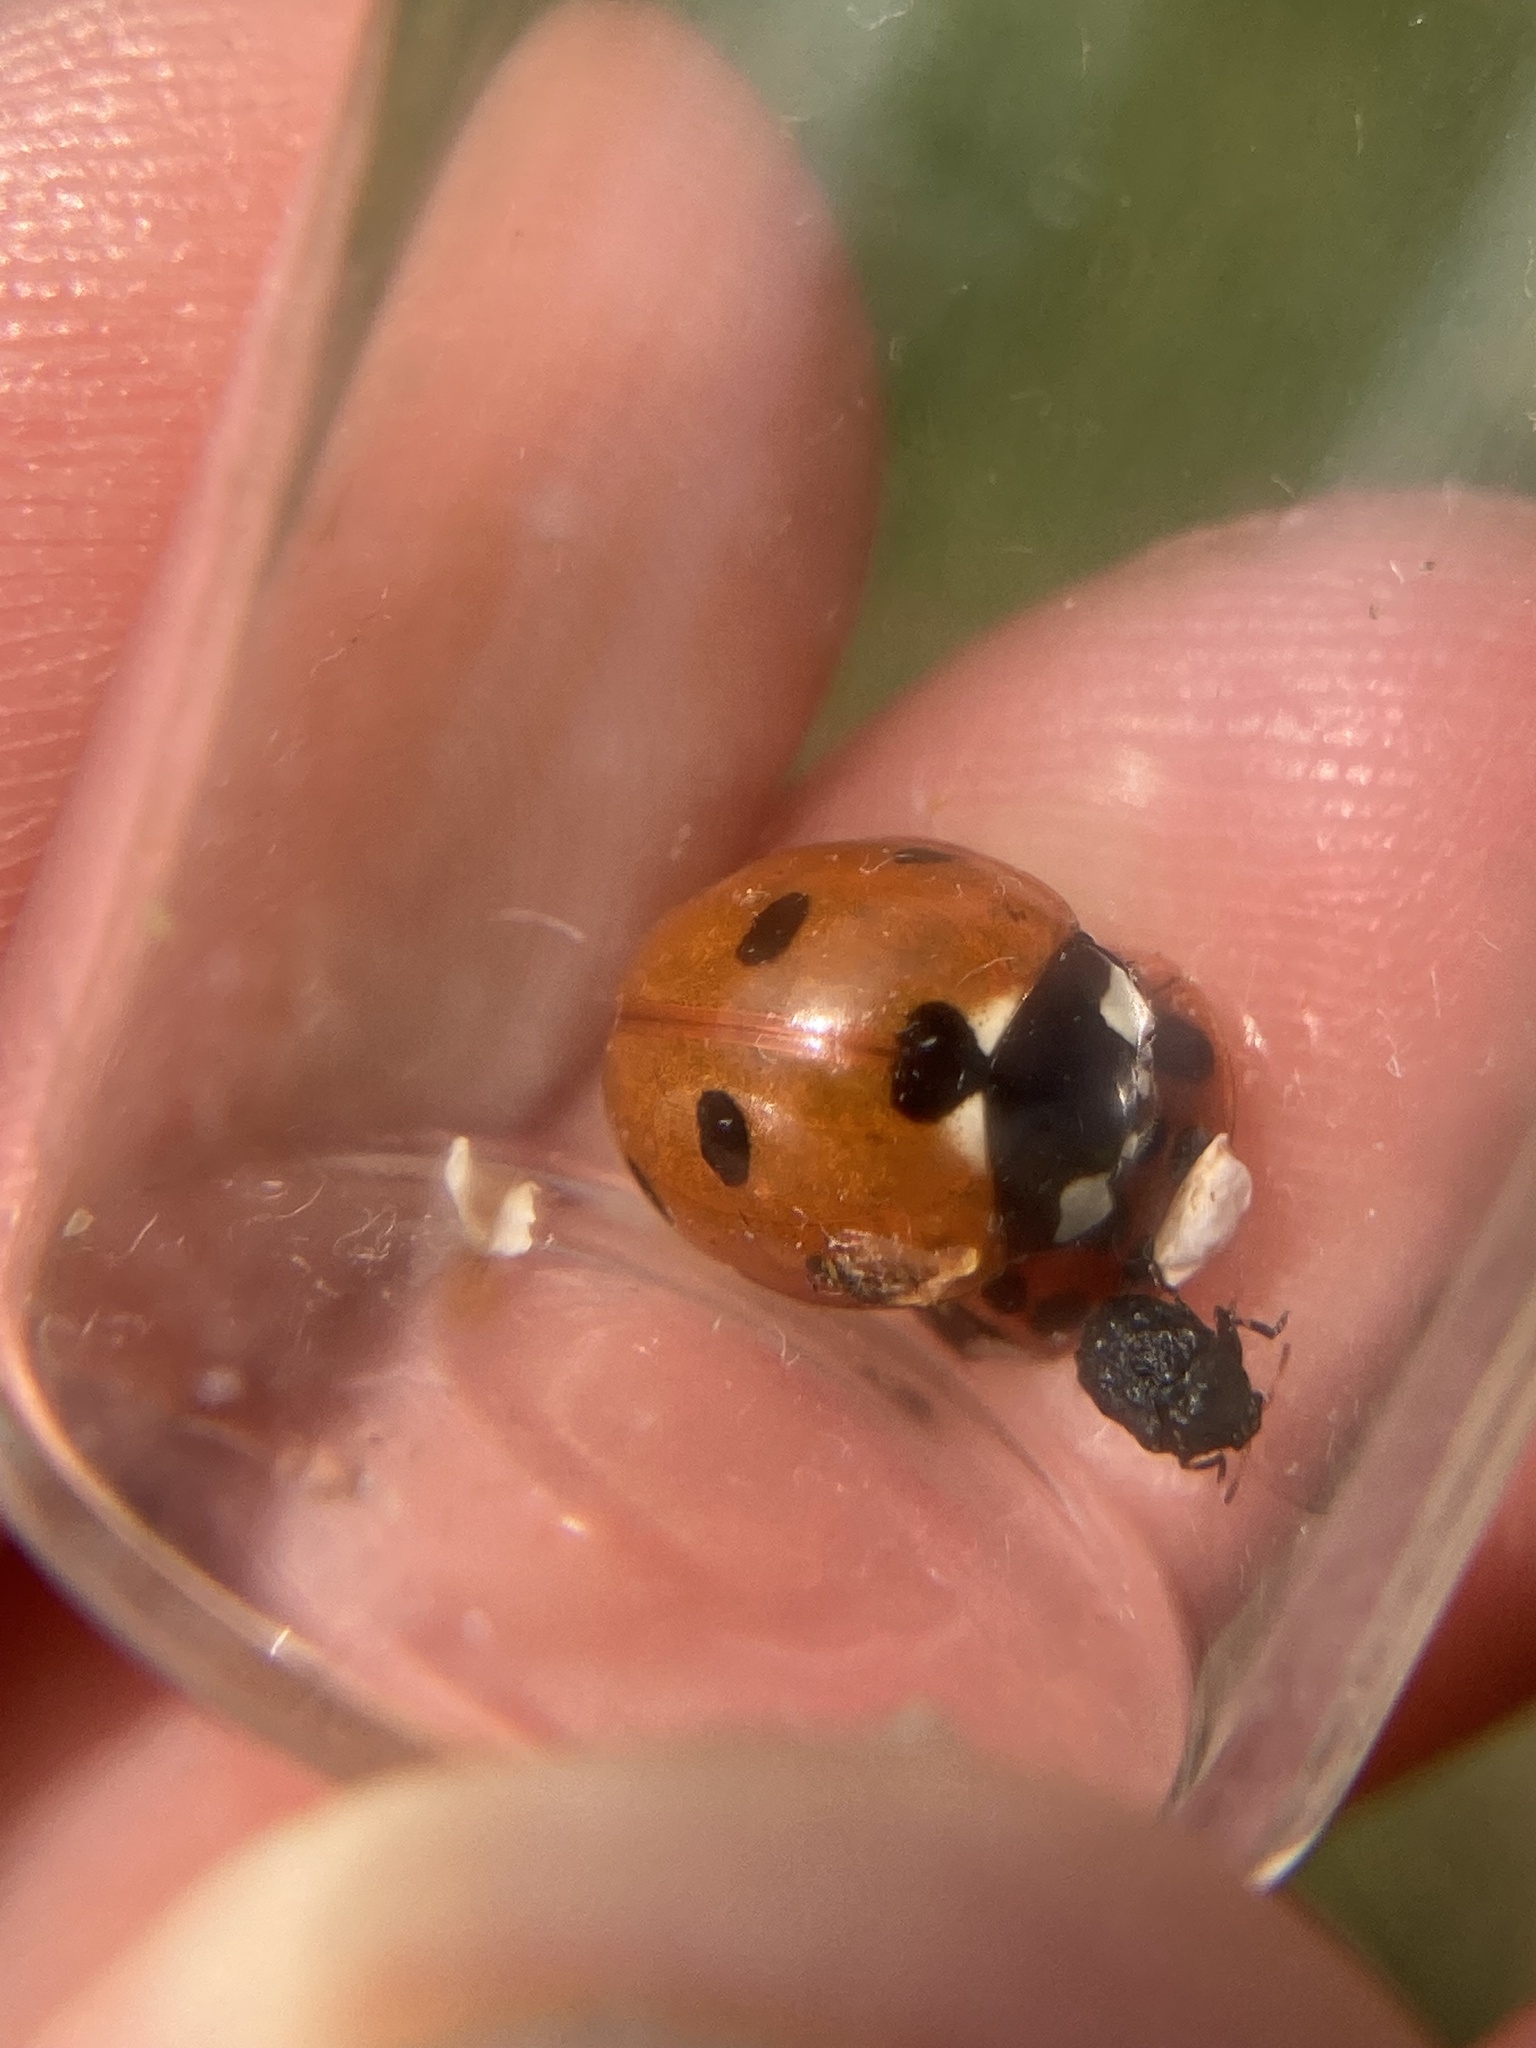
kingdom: Animalia
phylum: Arthropoda
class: Insecta
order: Coleoptera
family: Coccinellidae
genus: Coccinella
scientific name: Coccinella septempunctata
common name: Sevenspotted lady beetle
